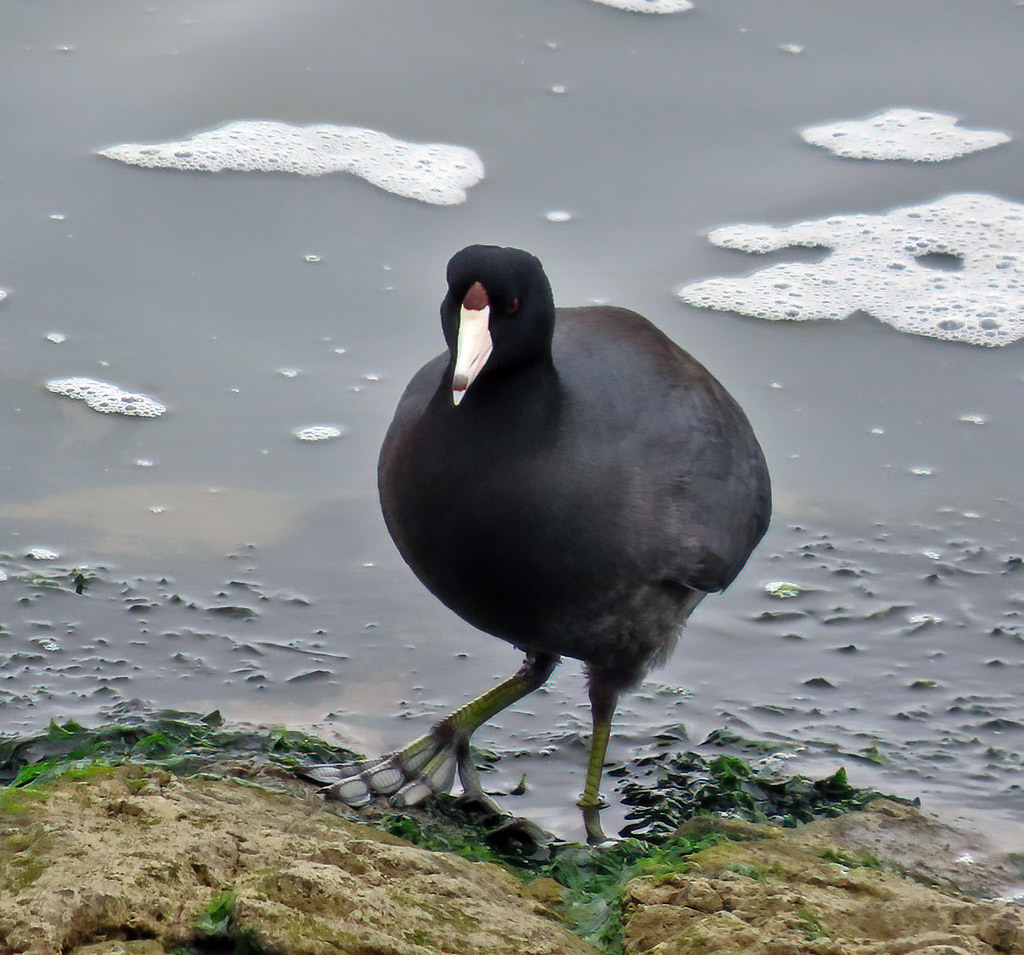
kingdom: Animalia
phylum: Chordata
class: Aves
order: Gruiformes
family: Rallidae
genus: Fulica
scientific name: Fulica americana
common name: American coot
